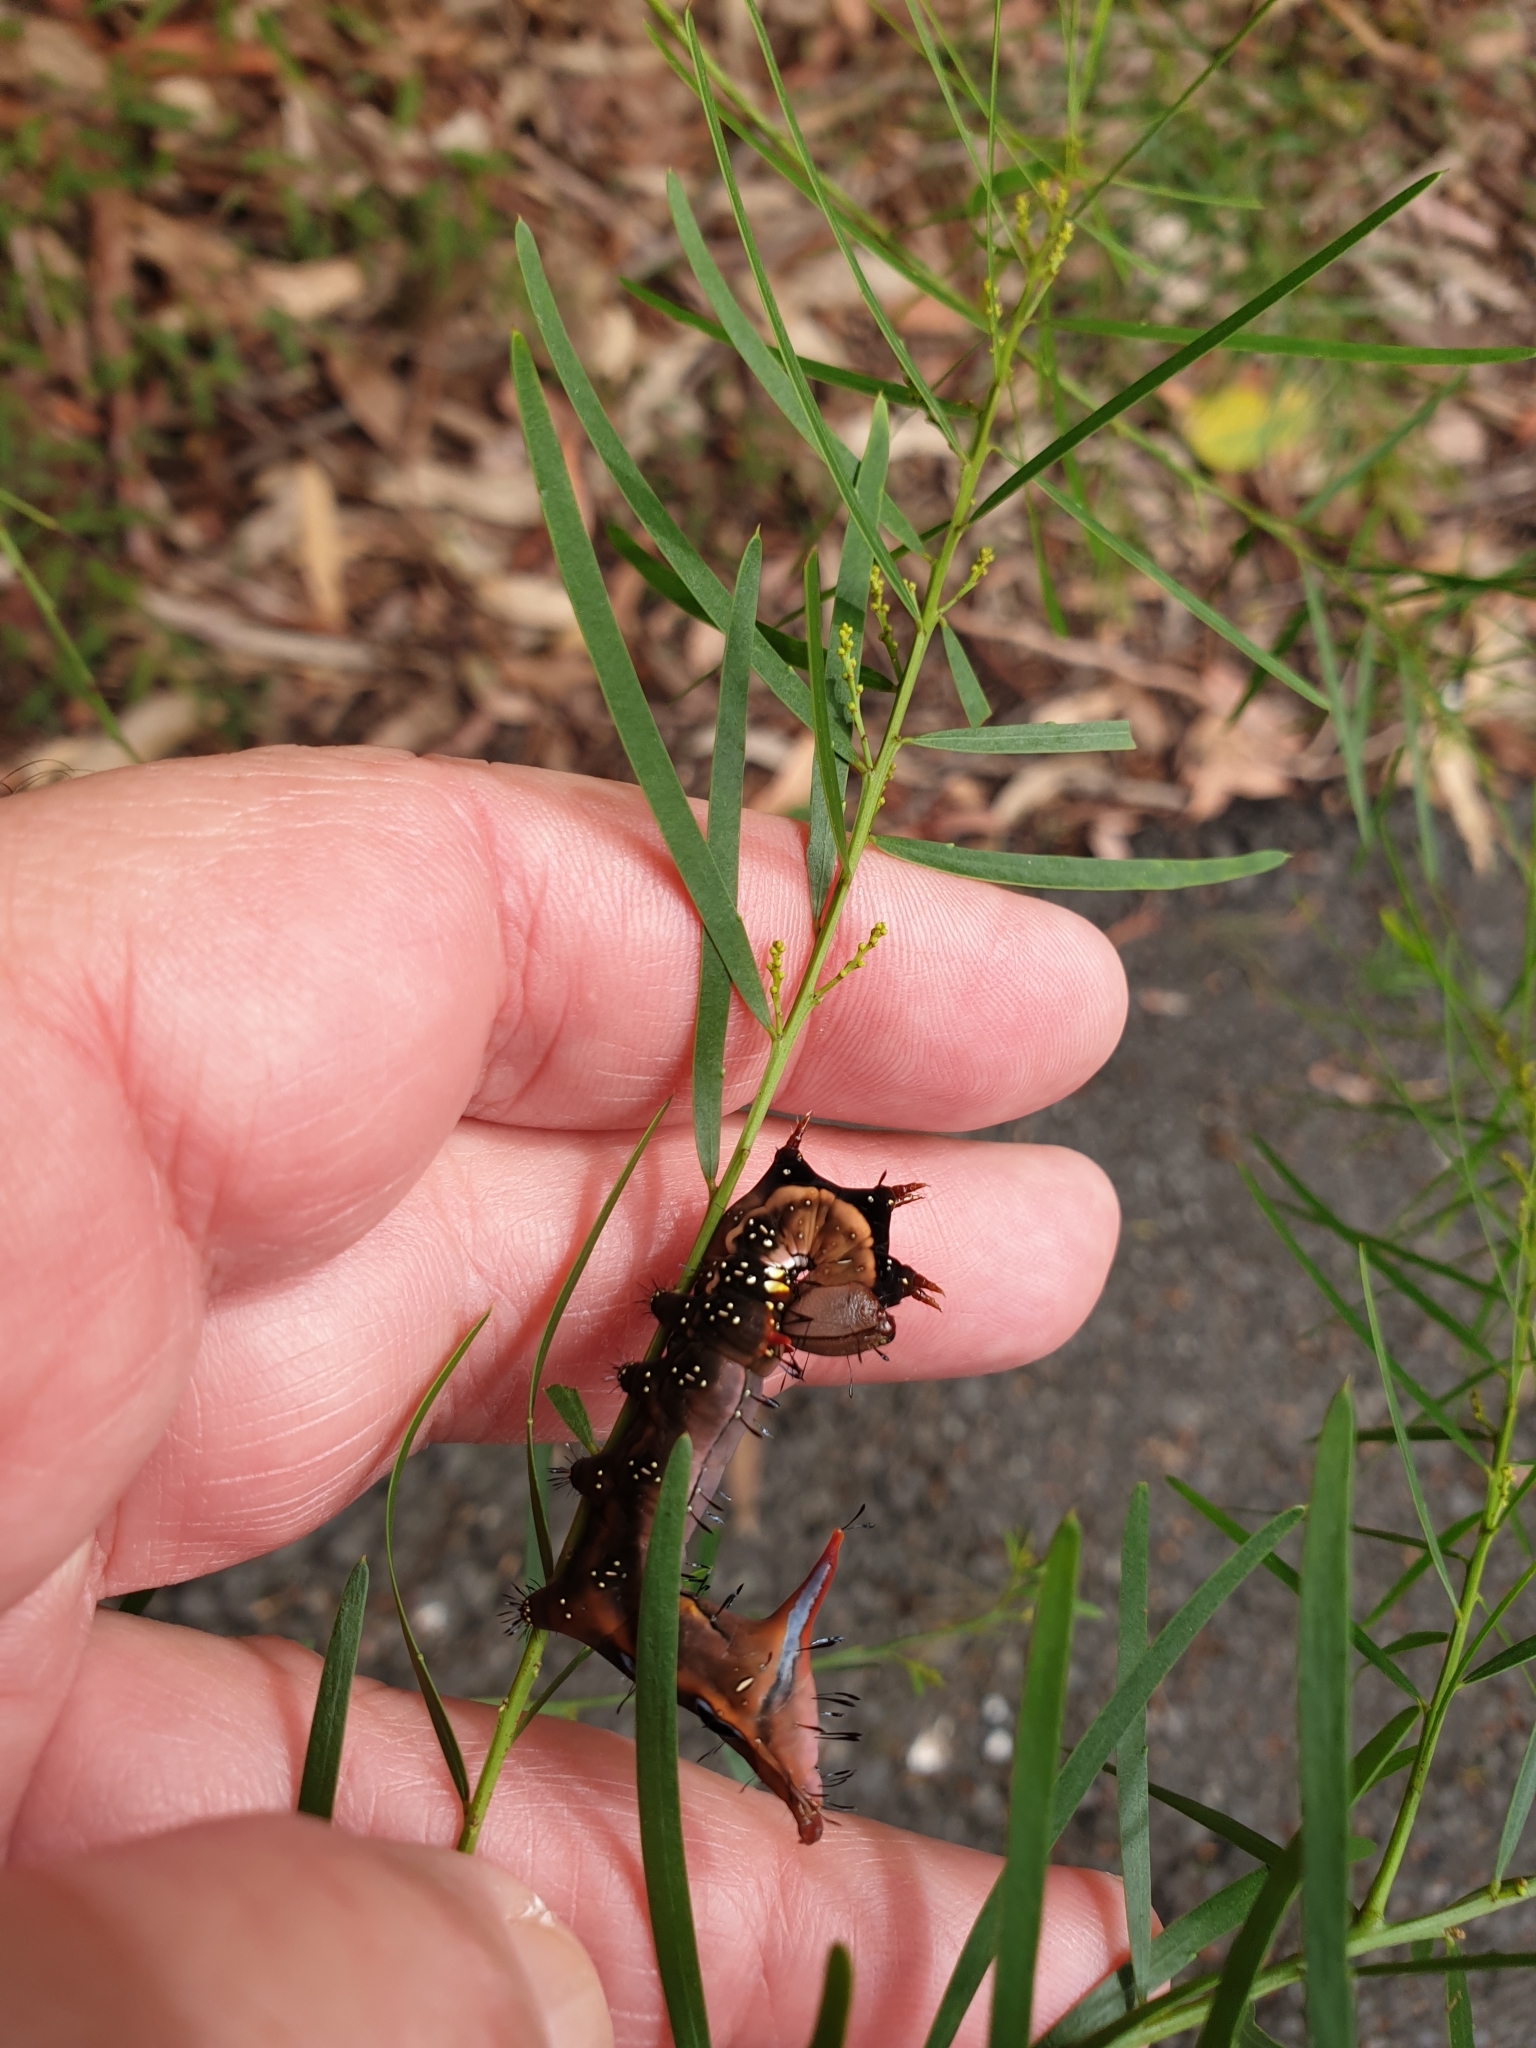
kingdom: Animalia
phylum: Arthropoda
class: Insecta
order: Lepidoptera
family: Notodontidae
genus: Neola
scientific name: Neola semiaurata
